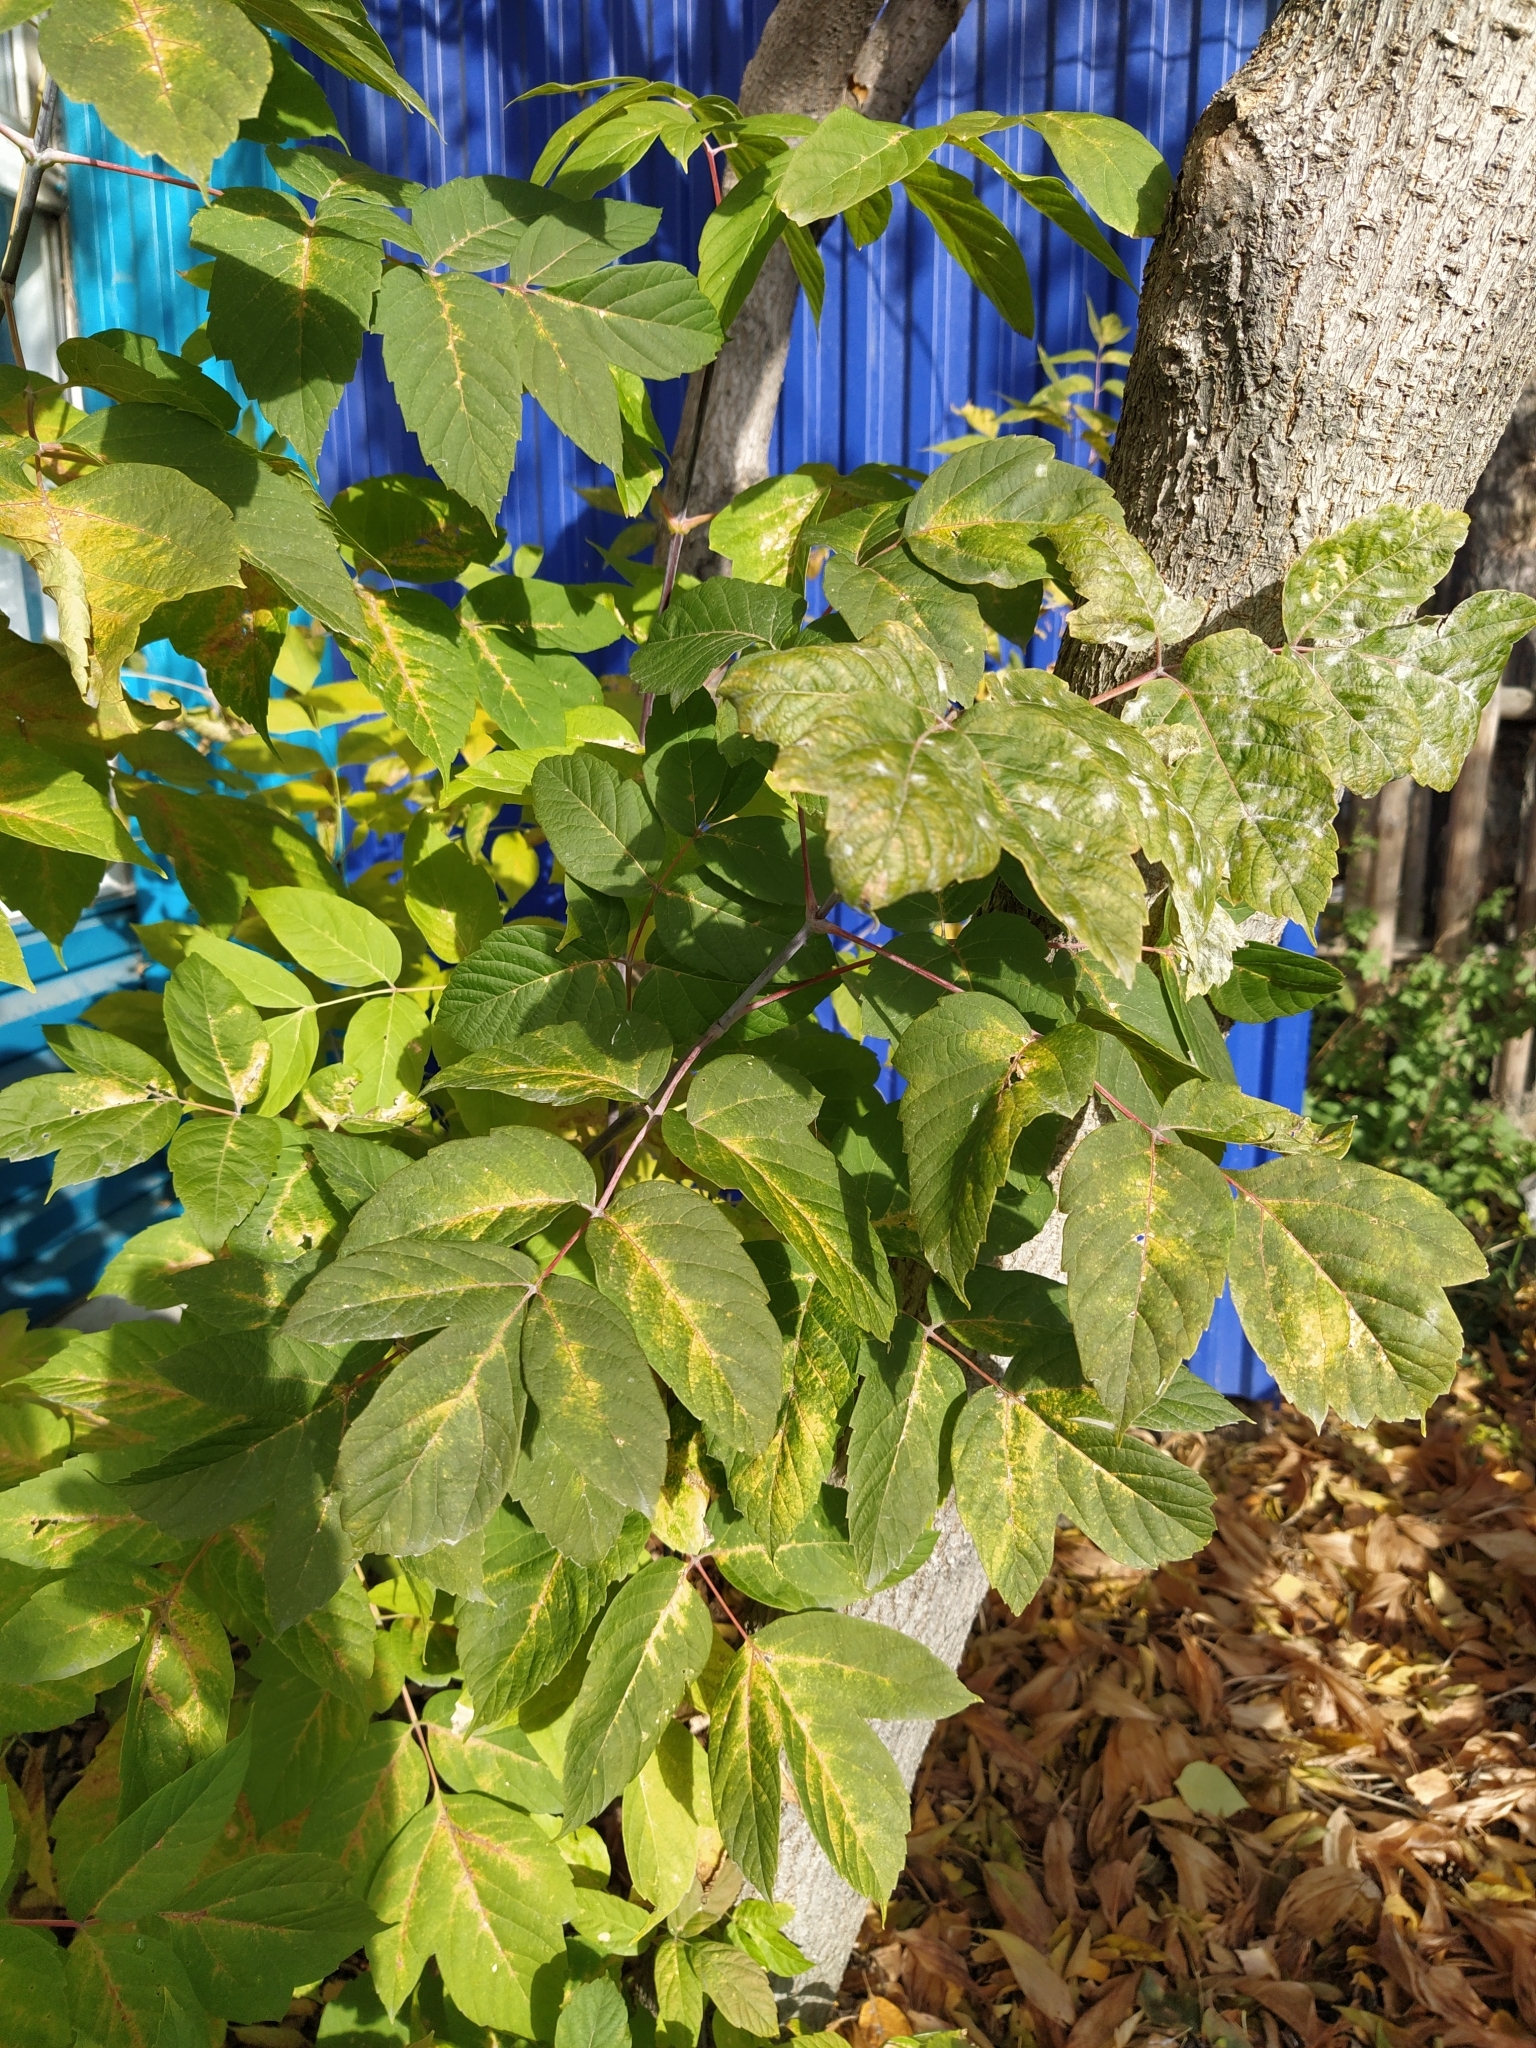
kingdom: Plantae
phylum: Tracheophyta
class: Magnoliopsida
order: Sapindales
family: Sapindaceae
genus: Acer
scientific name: Acer negundo
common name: Ashleaf maple
